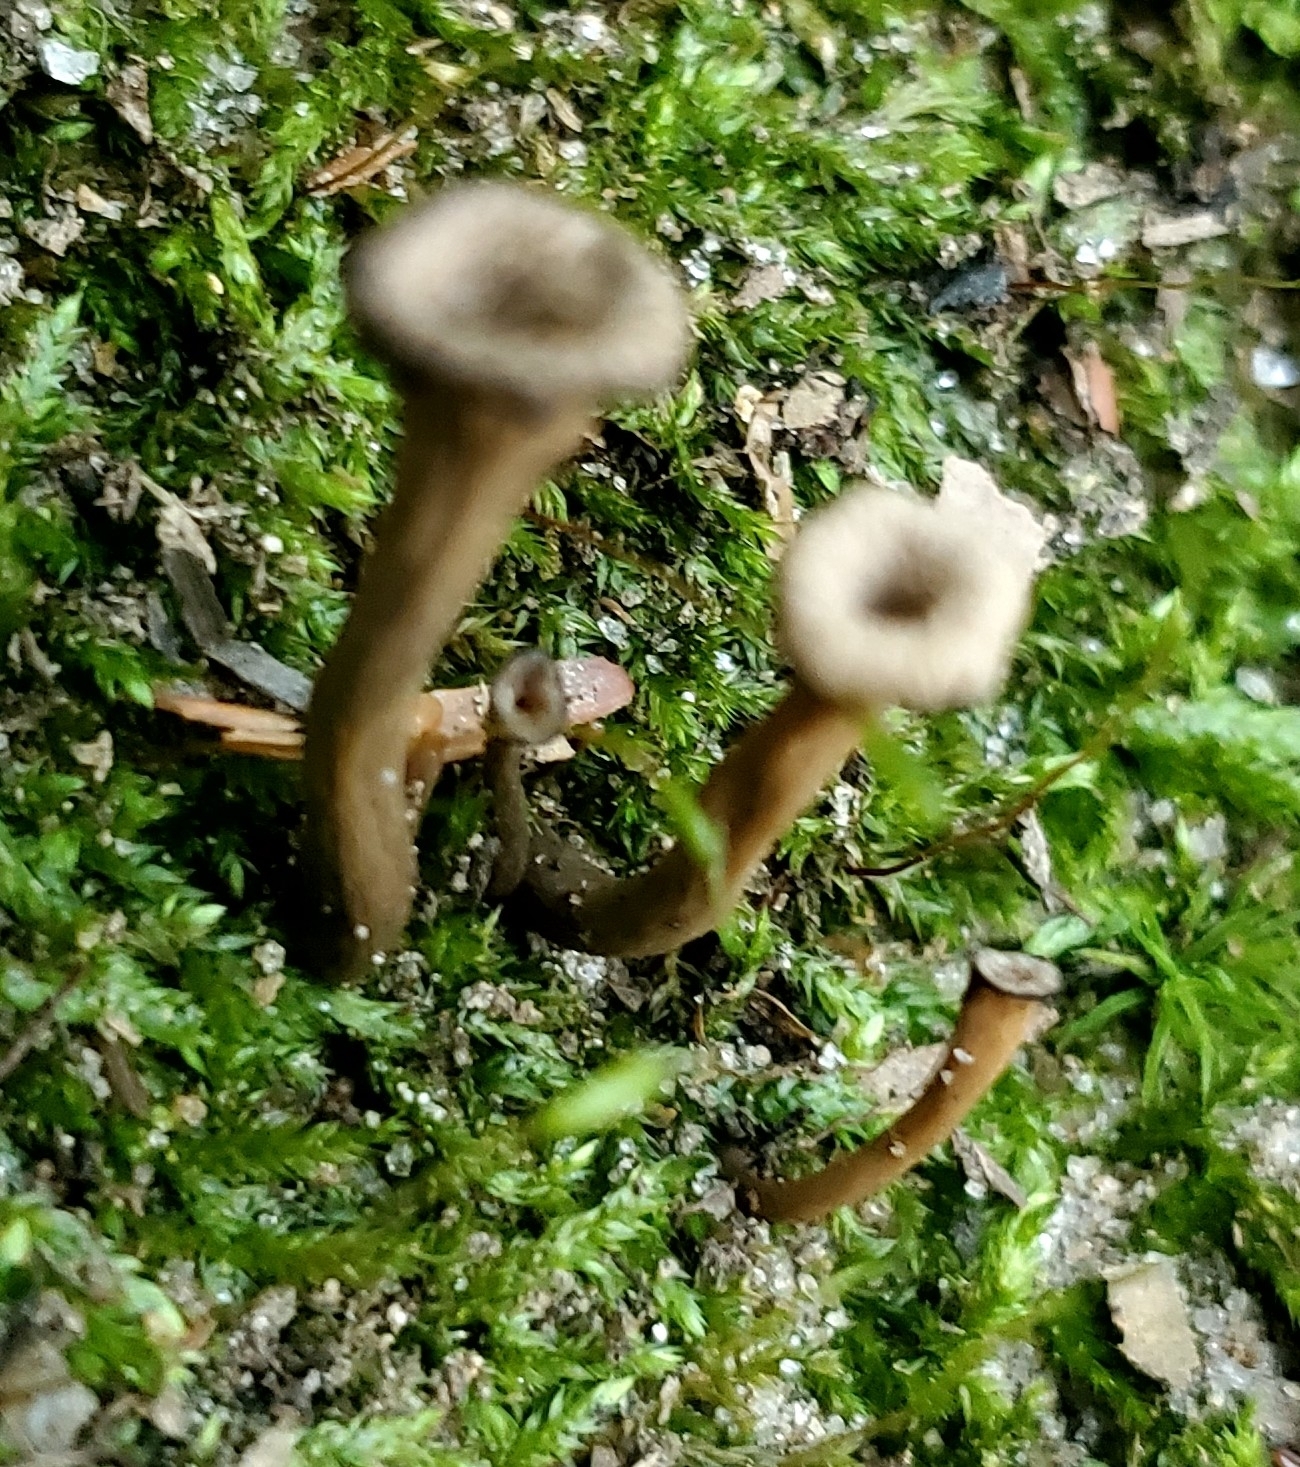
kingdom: Fungi
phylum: Basidiomycota
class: Agaricomycetes
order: Cantharellales
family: Hydnaceae
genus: Craterellus
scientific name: Craterellus cornucopioides
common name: Horn of plenty
